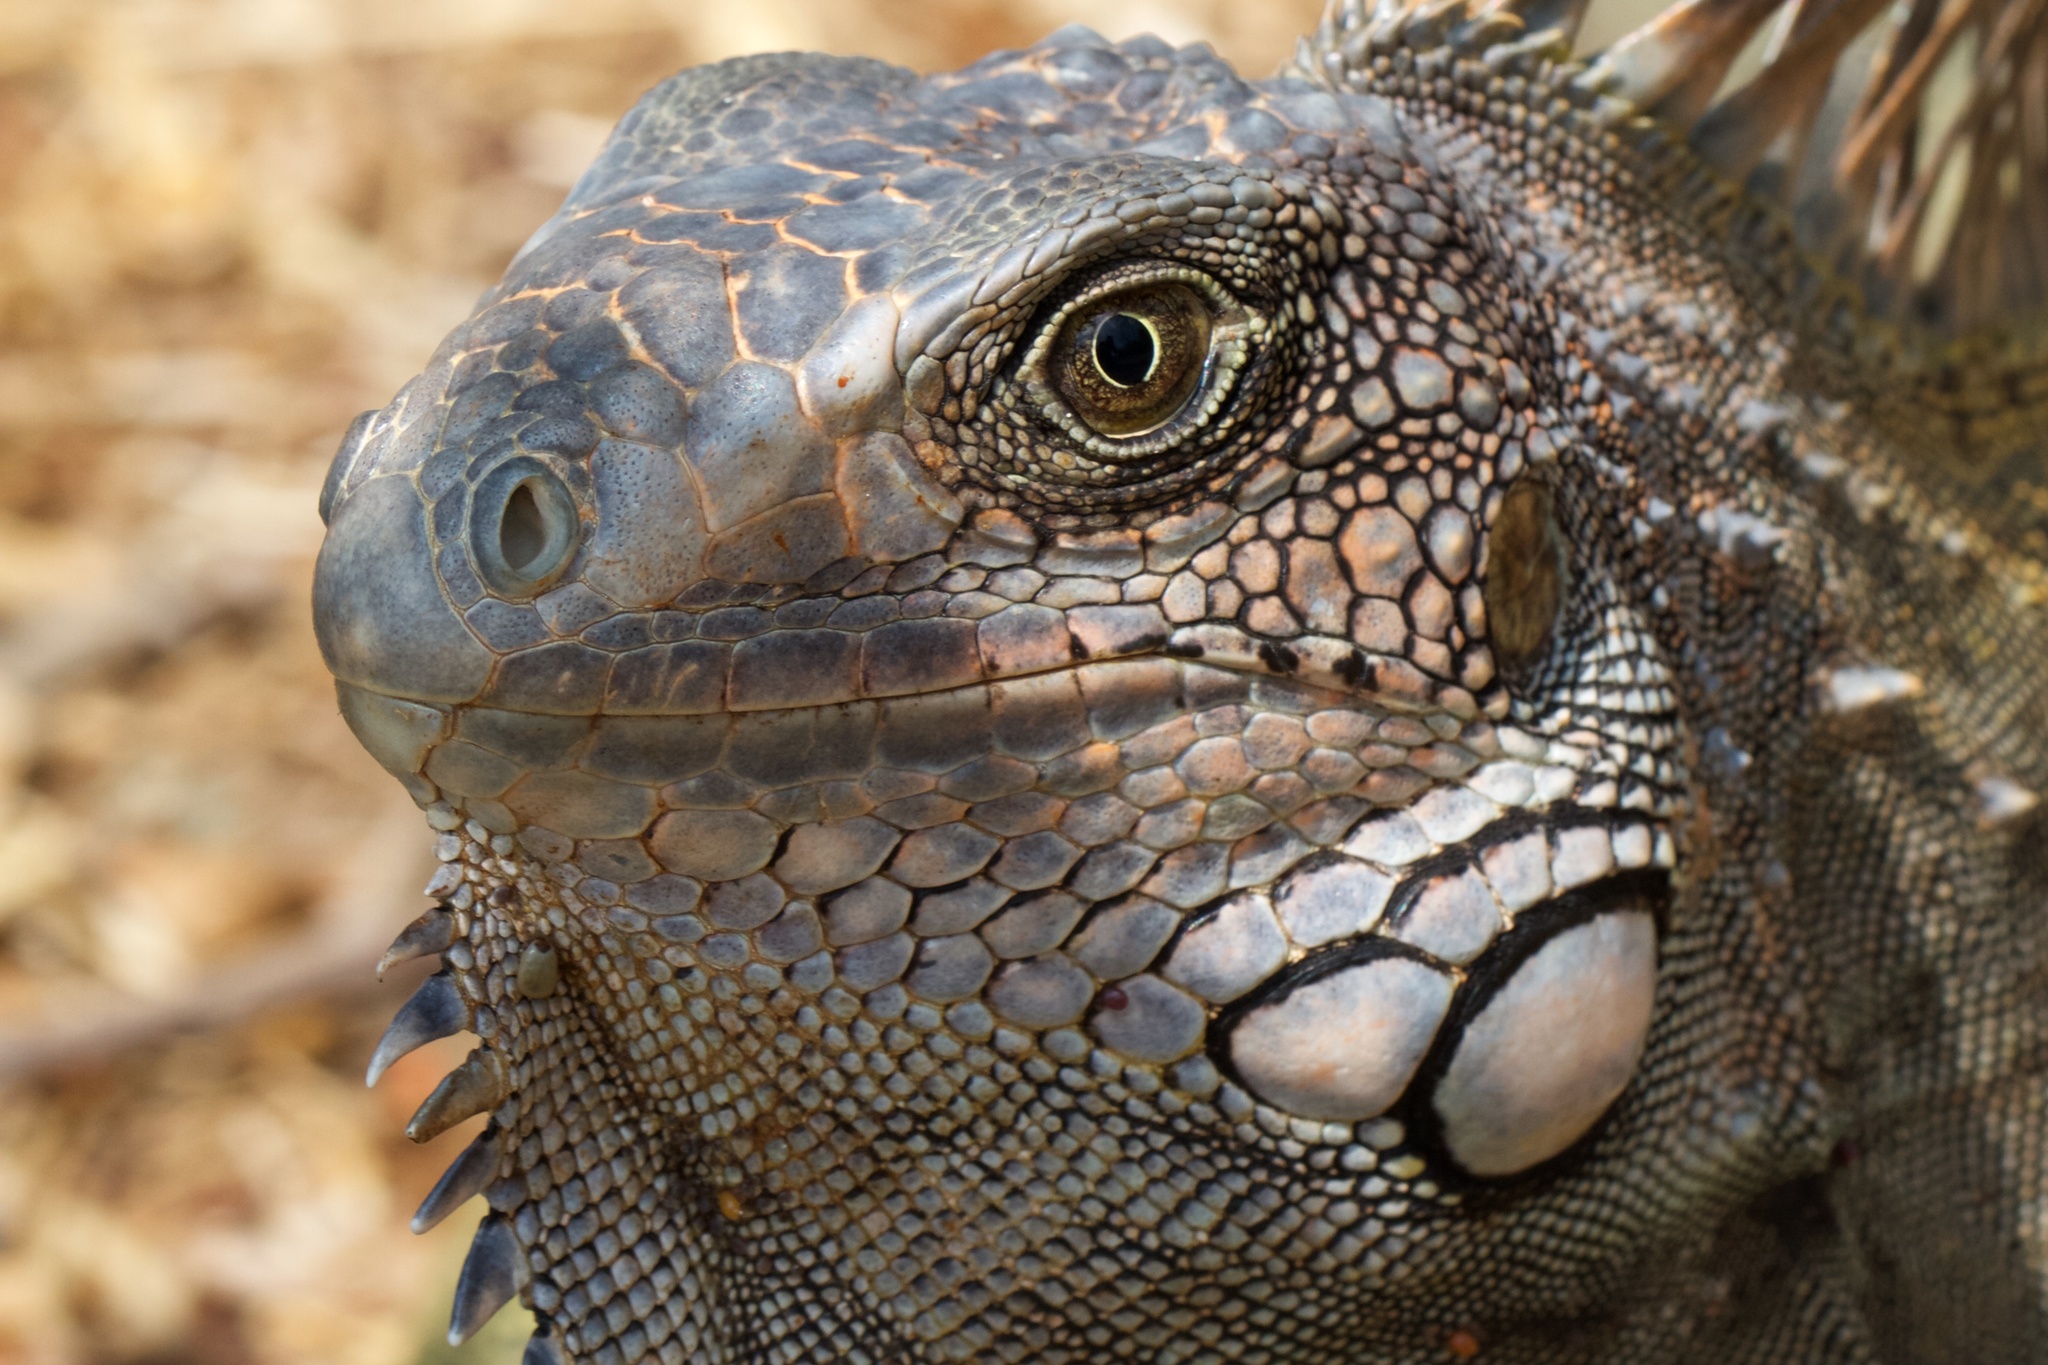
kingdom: Animalia
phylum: Chordata
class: Squamata
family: Iguanidae
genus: Iguana
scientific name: Iguana iguana
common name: Green iguana
